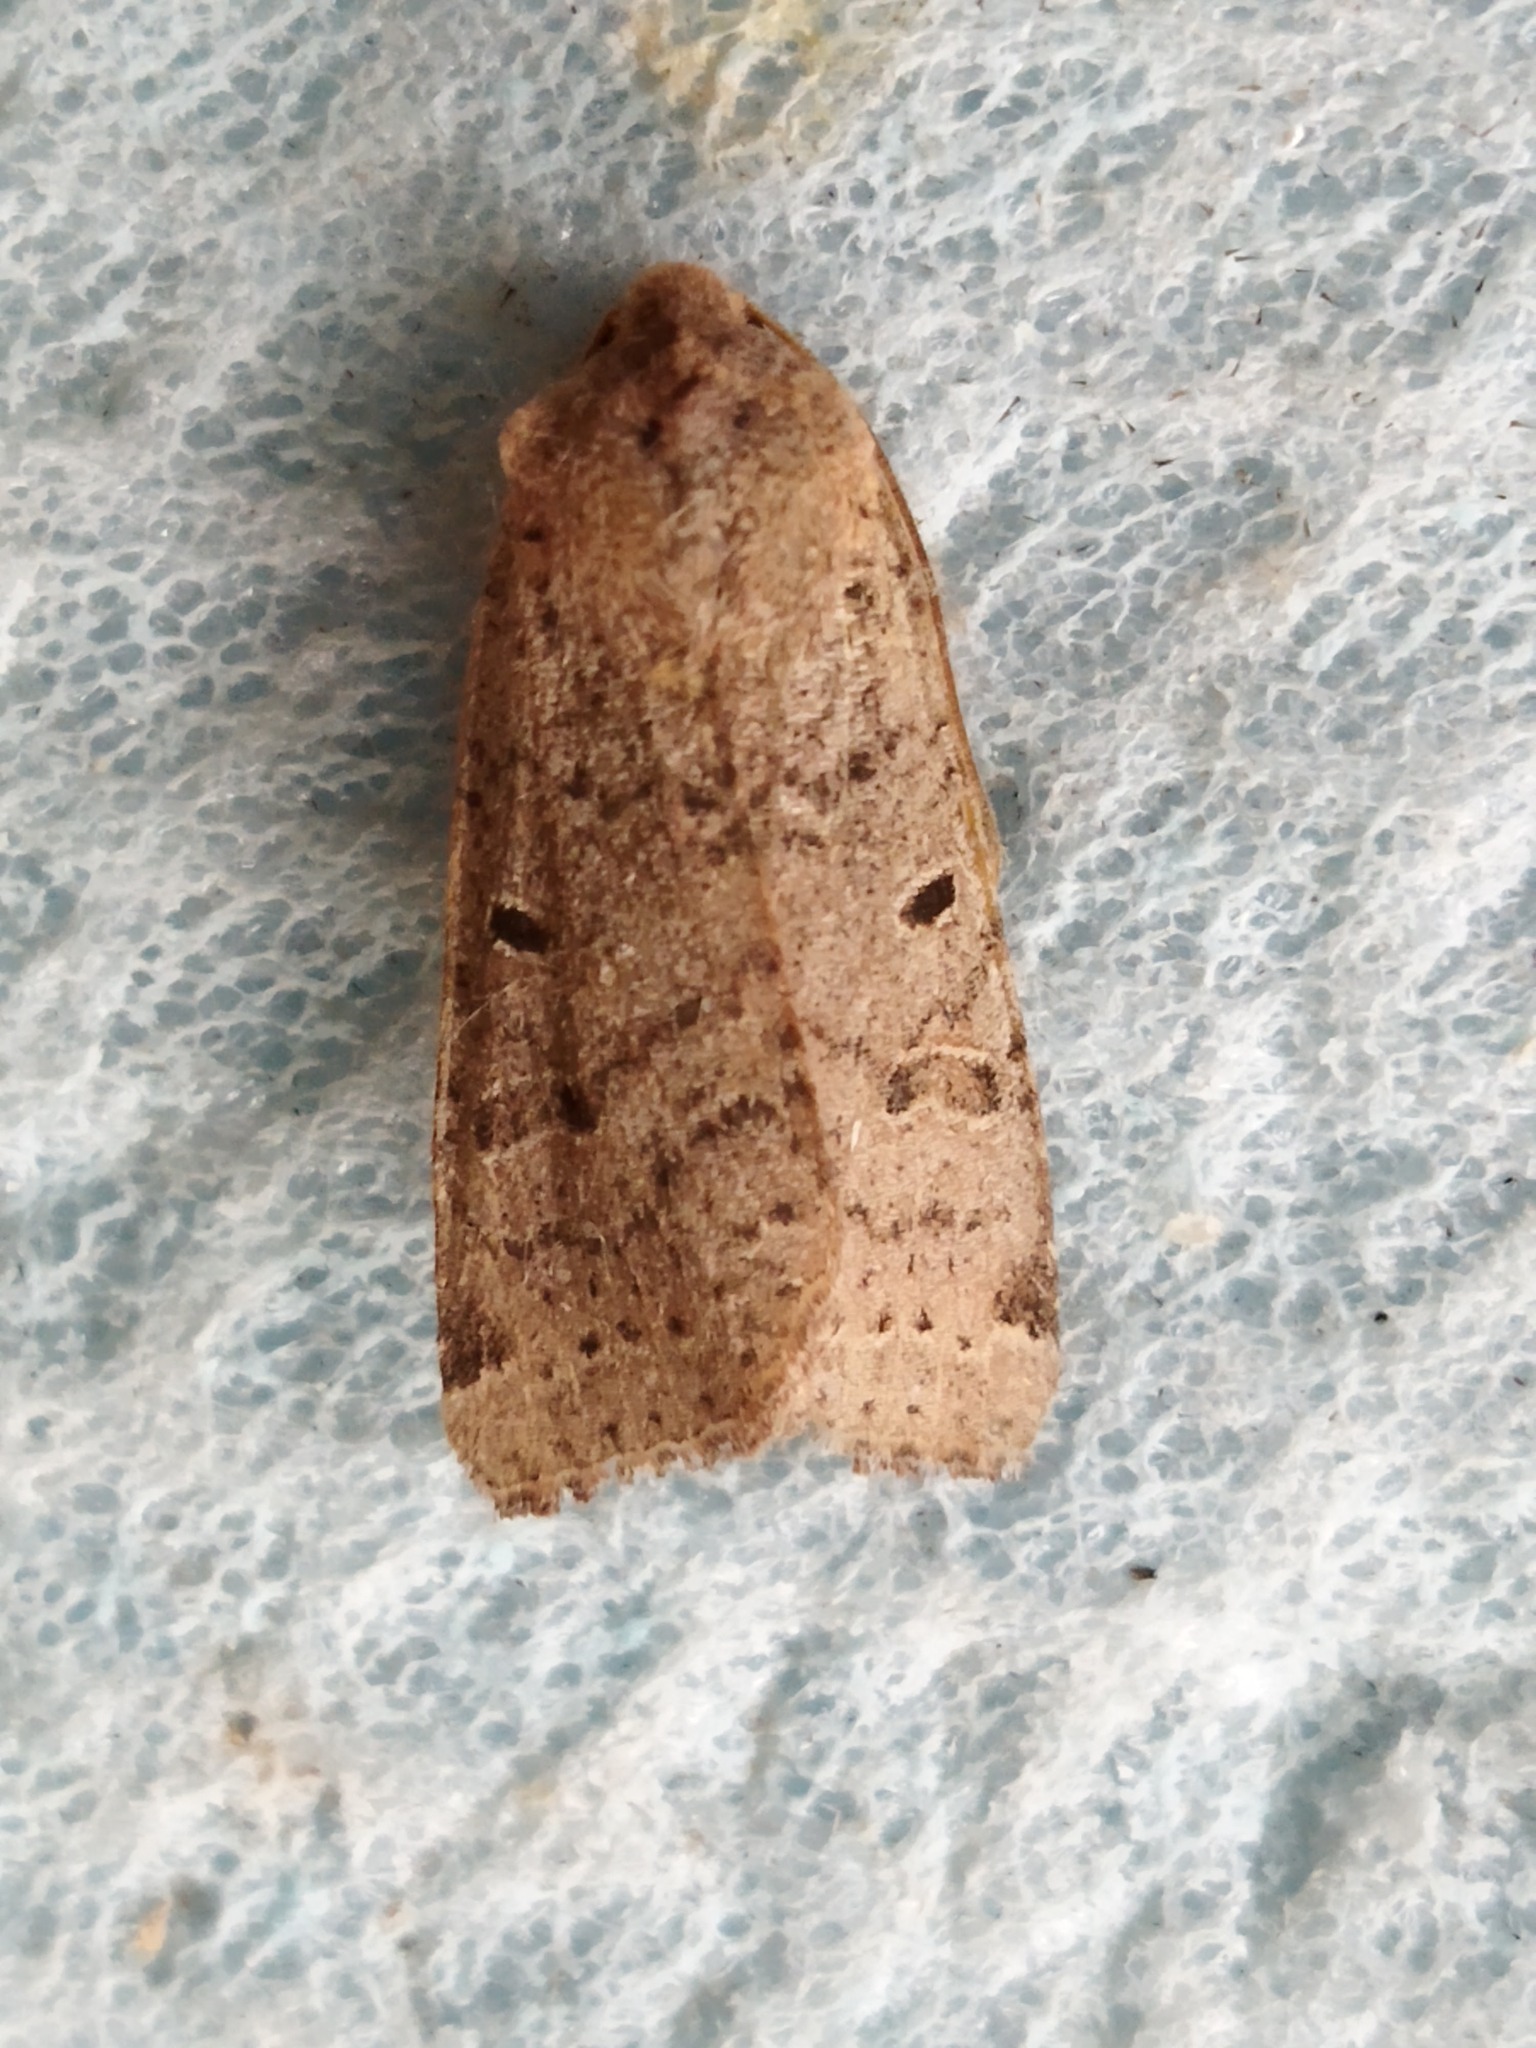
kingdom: Animalia
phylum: Arthropoda
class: Insecta
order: Lepidoptera
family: Noctuidae
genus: Agrochola
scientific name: Agrochola lychnidis
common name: Beaded chestnut
